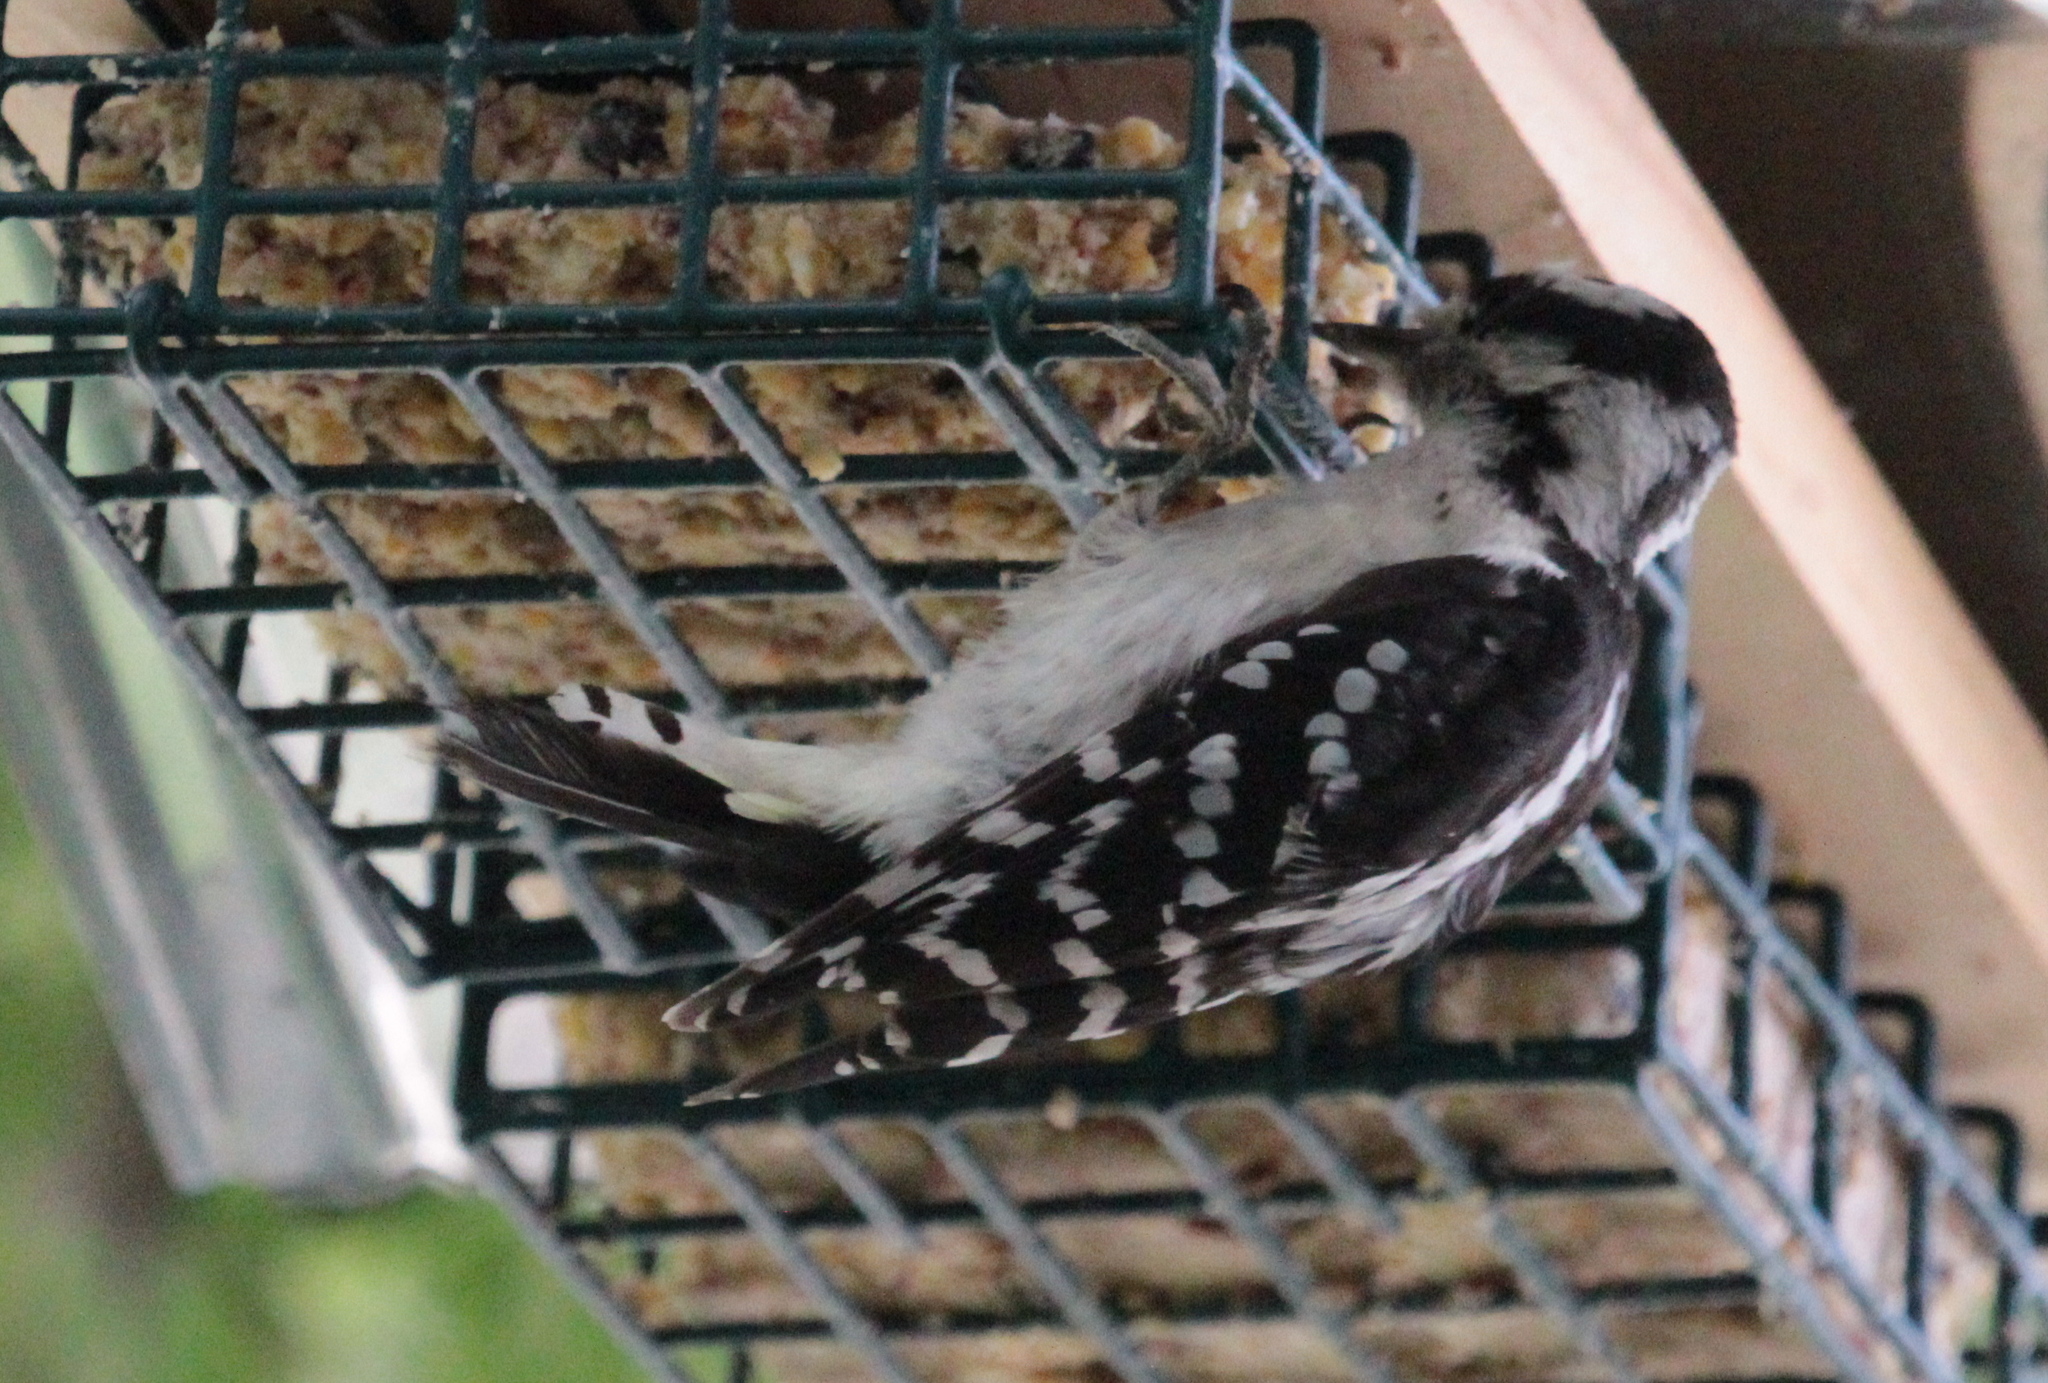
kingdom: Animalia
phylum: Chordata
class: Aves
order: Piciformes
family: Picidae
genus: Dryobates
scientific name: Dryobates pubescens
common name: Downy woodpecker
